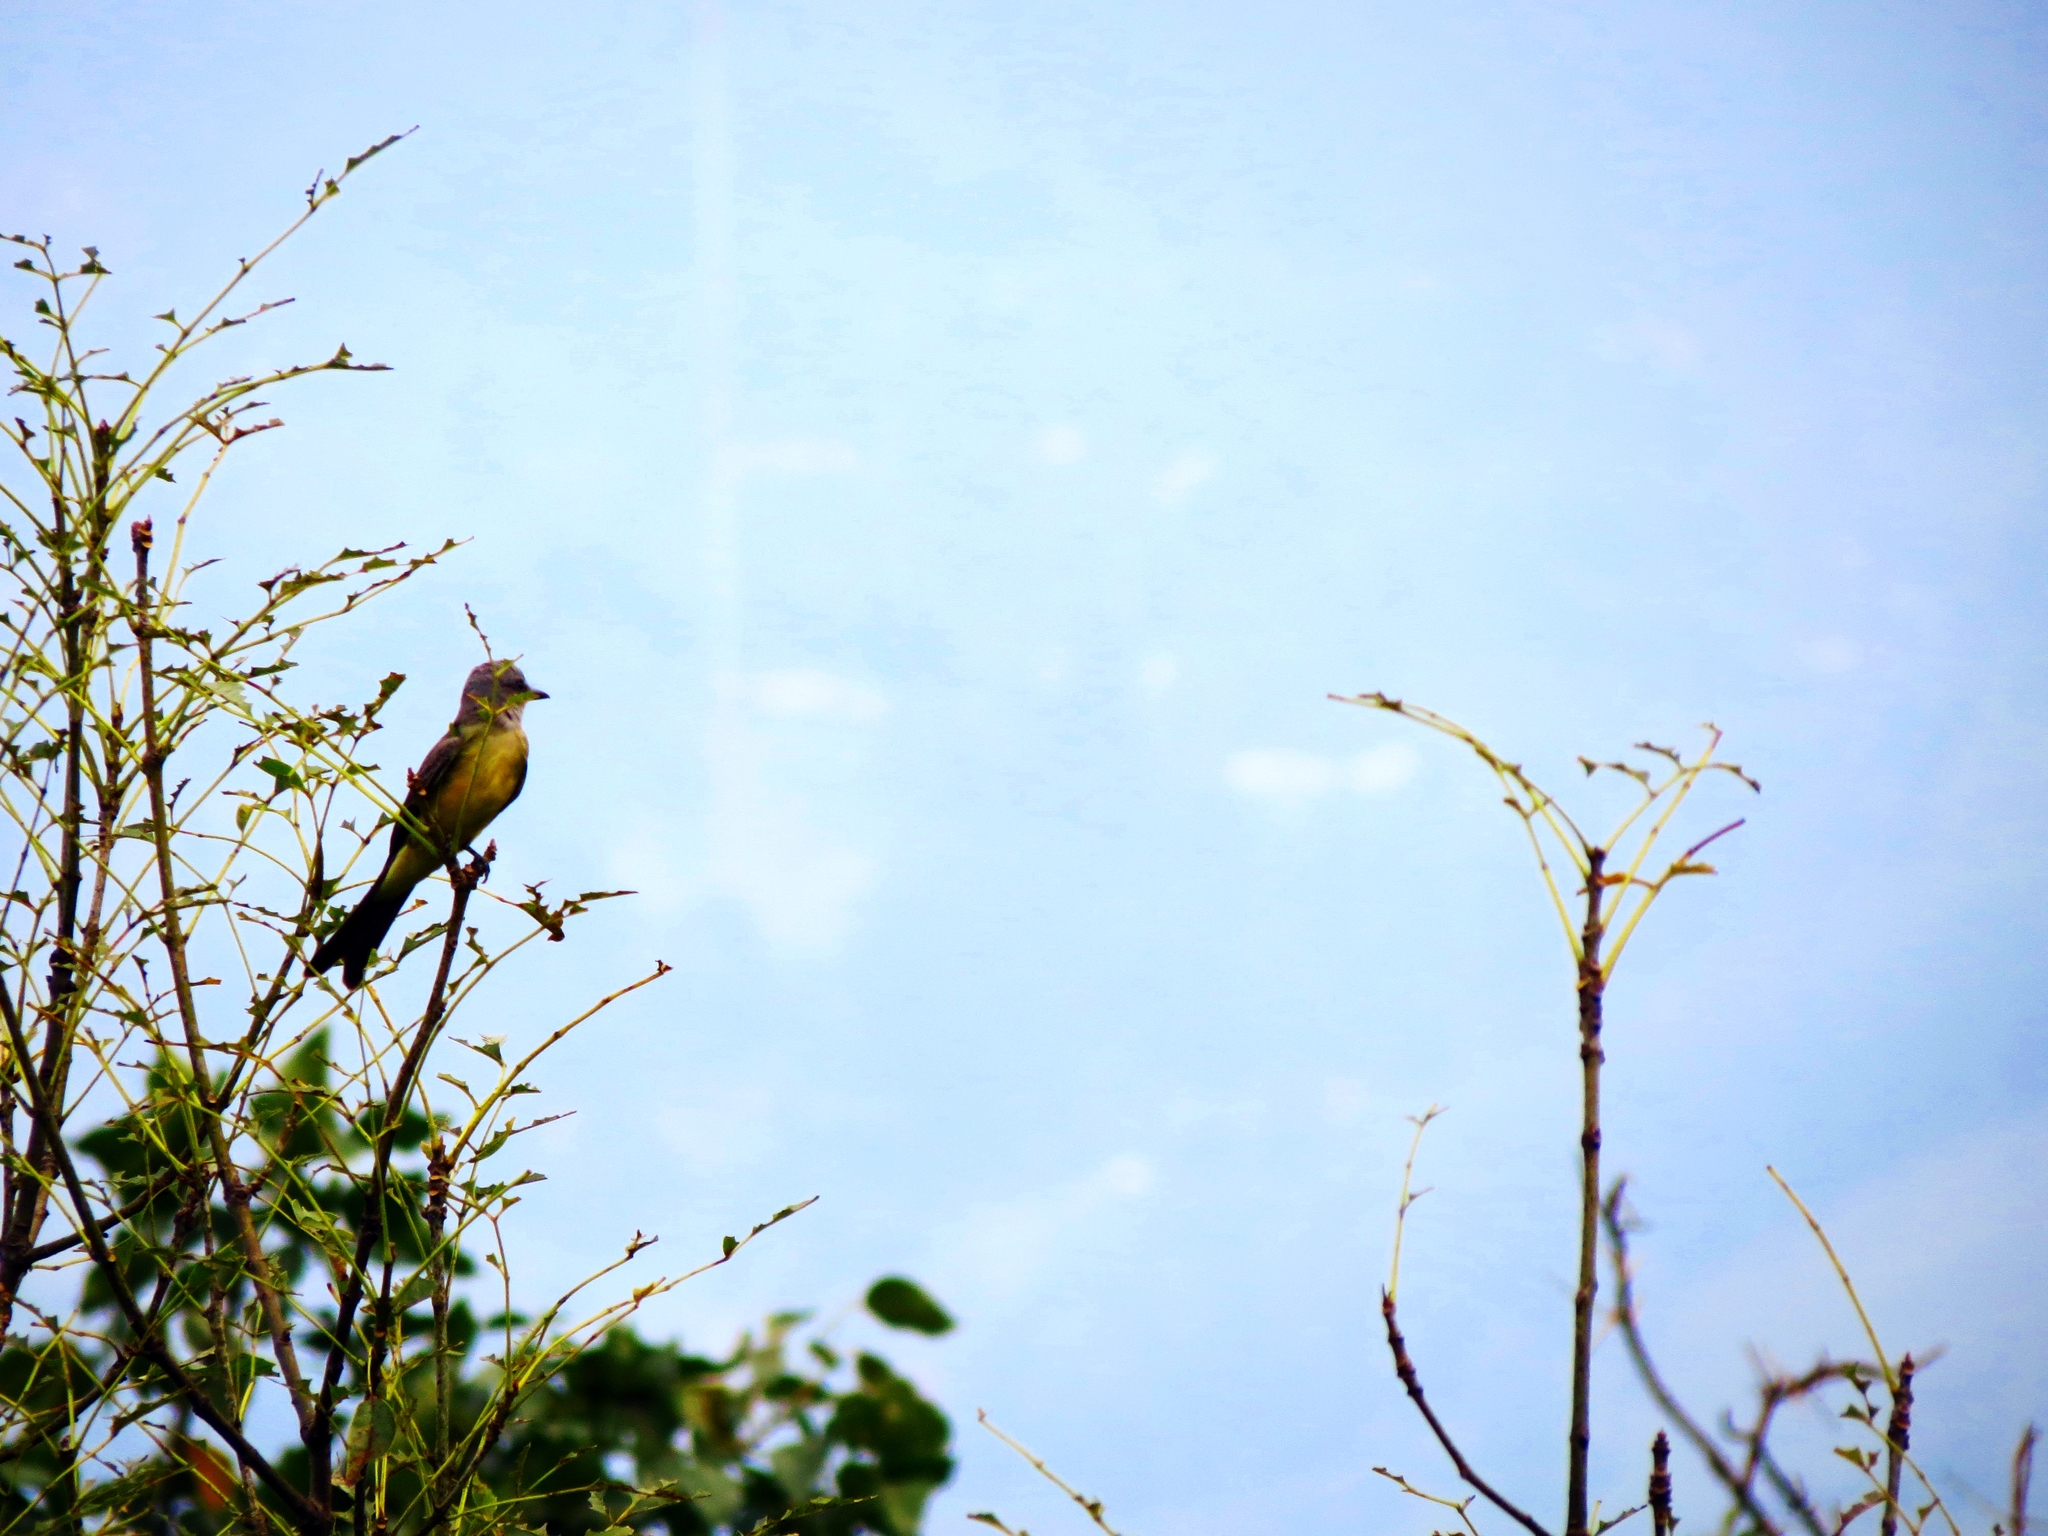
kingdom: Animalia
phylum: Chordata
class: Aves
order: Passeriformes
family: Tyrannidae
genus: Tyrannus
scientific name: Tyrannus melancholicus
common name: Tropical kingbird
